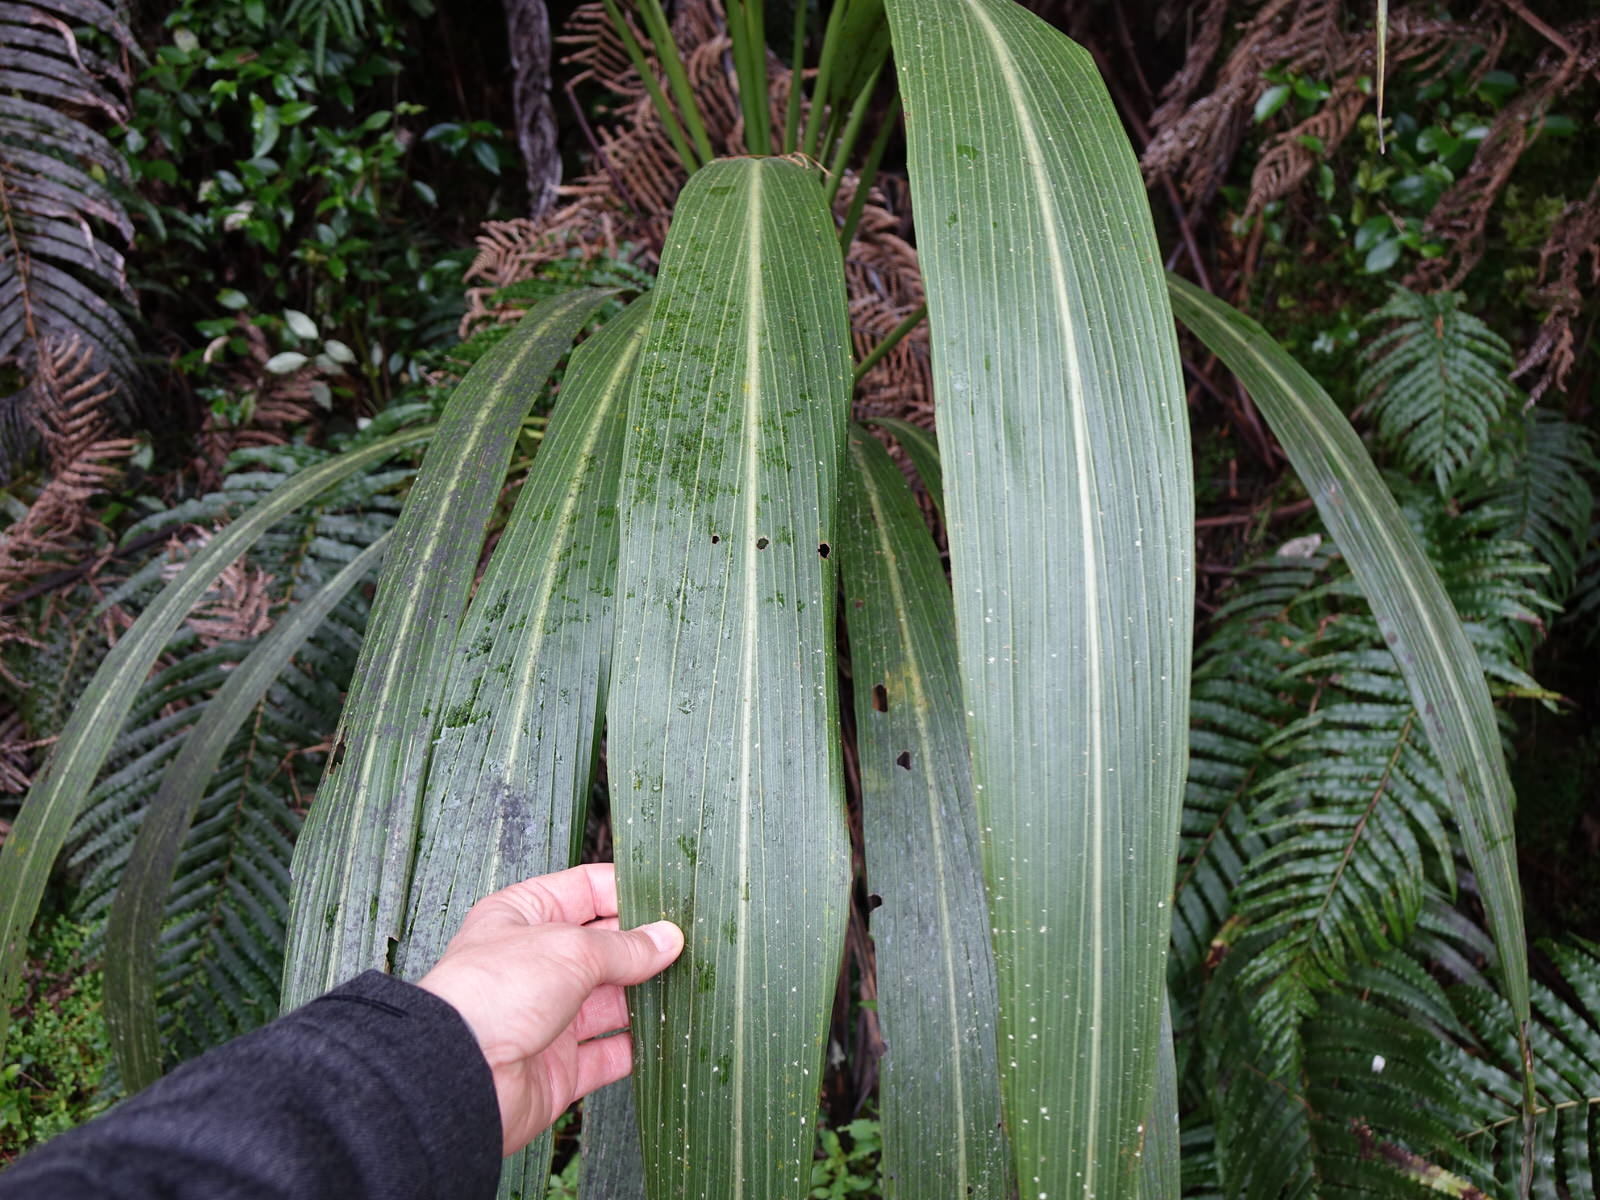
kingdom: Plantae
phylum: Tracheophyta
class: Liliopsida
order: Asparagales
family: Asparagaceae
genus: Cordyline
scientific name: Cordyline banksii
